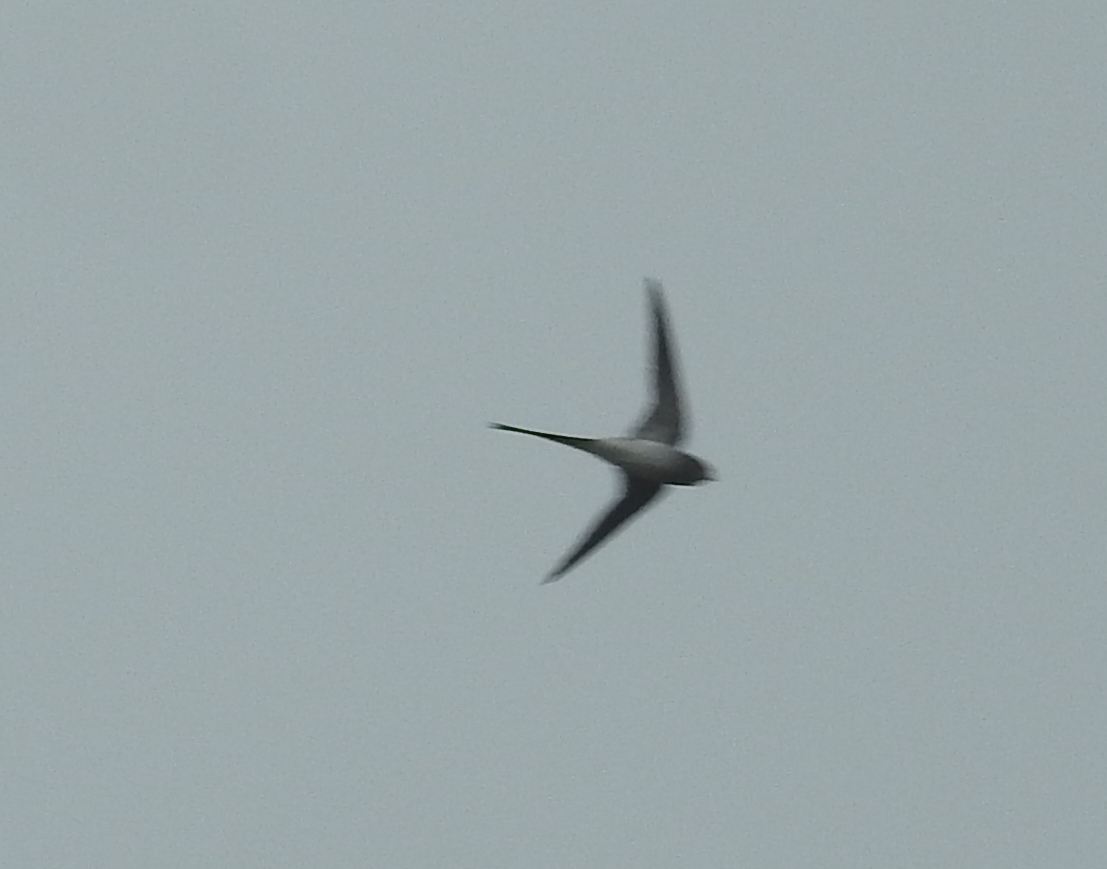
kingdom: Animalia
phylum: Chordata
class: Aves
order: Apodiformes
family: Hemiprocnidae
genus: Hemiprocne
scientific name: Hemiprocne coronata
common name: Crested treeswift
